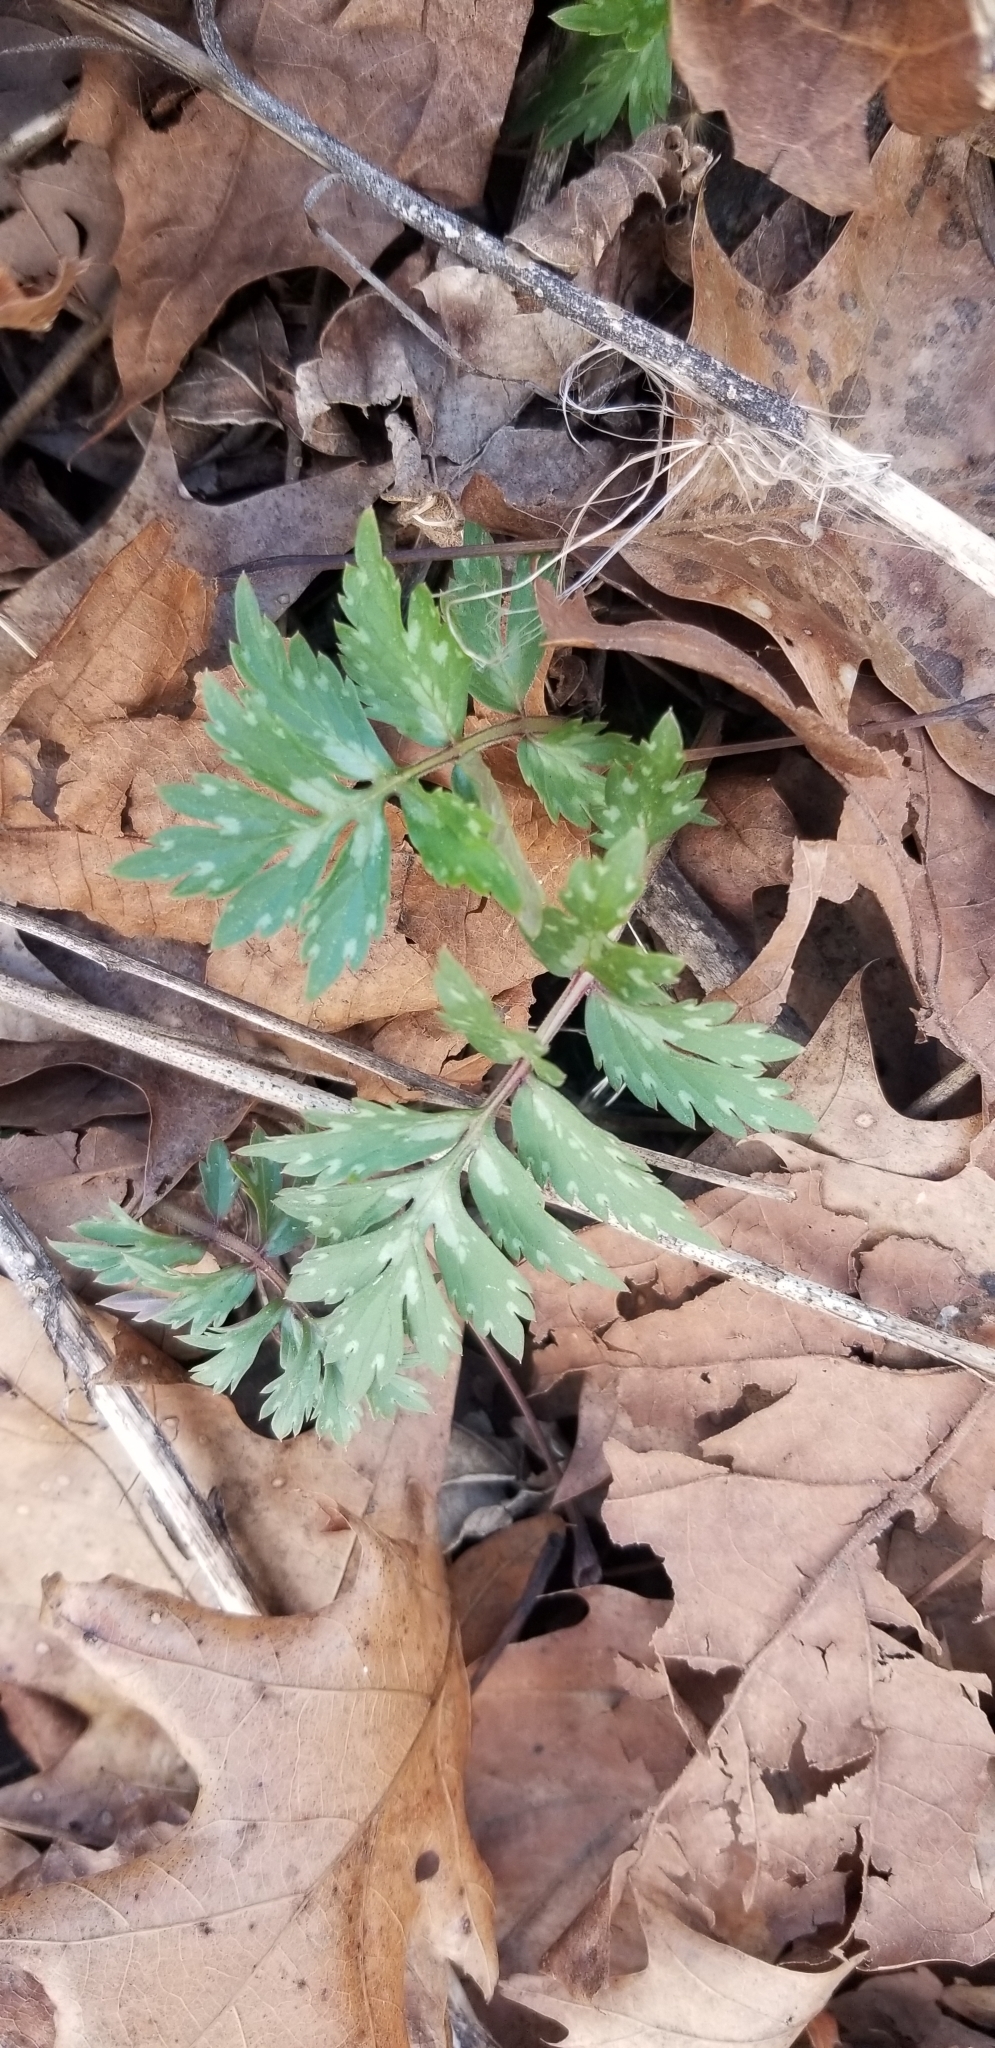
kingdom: Plantae
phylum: Tracheophyta
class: Magnoliopsida
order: Boraginales
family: Hydrophyllaceae
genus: Hydrophyllum
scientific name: Hydrophyllum virginianum
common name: Virginia waterleaf
